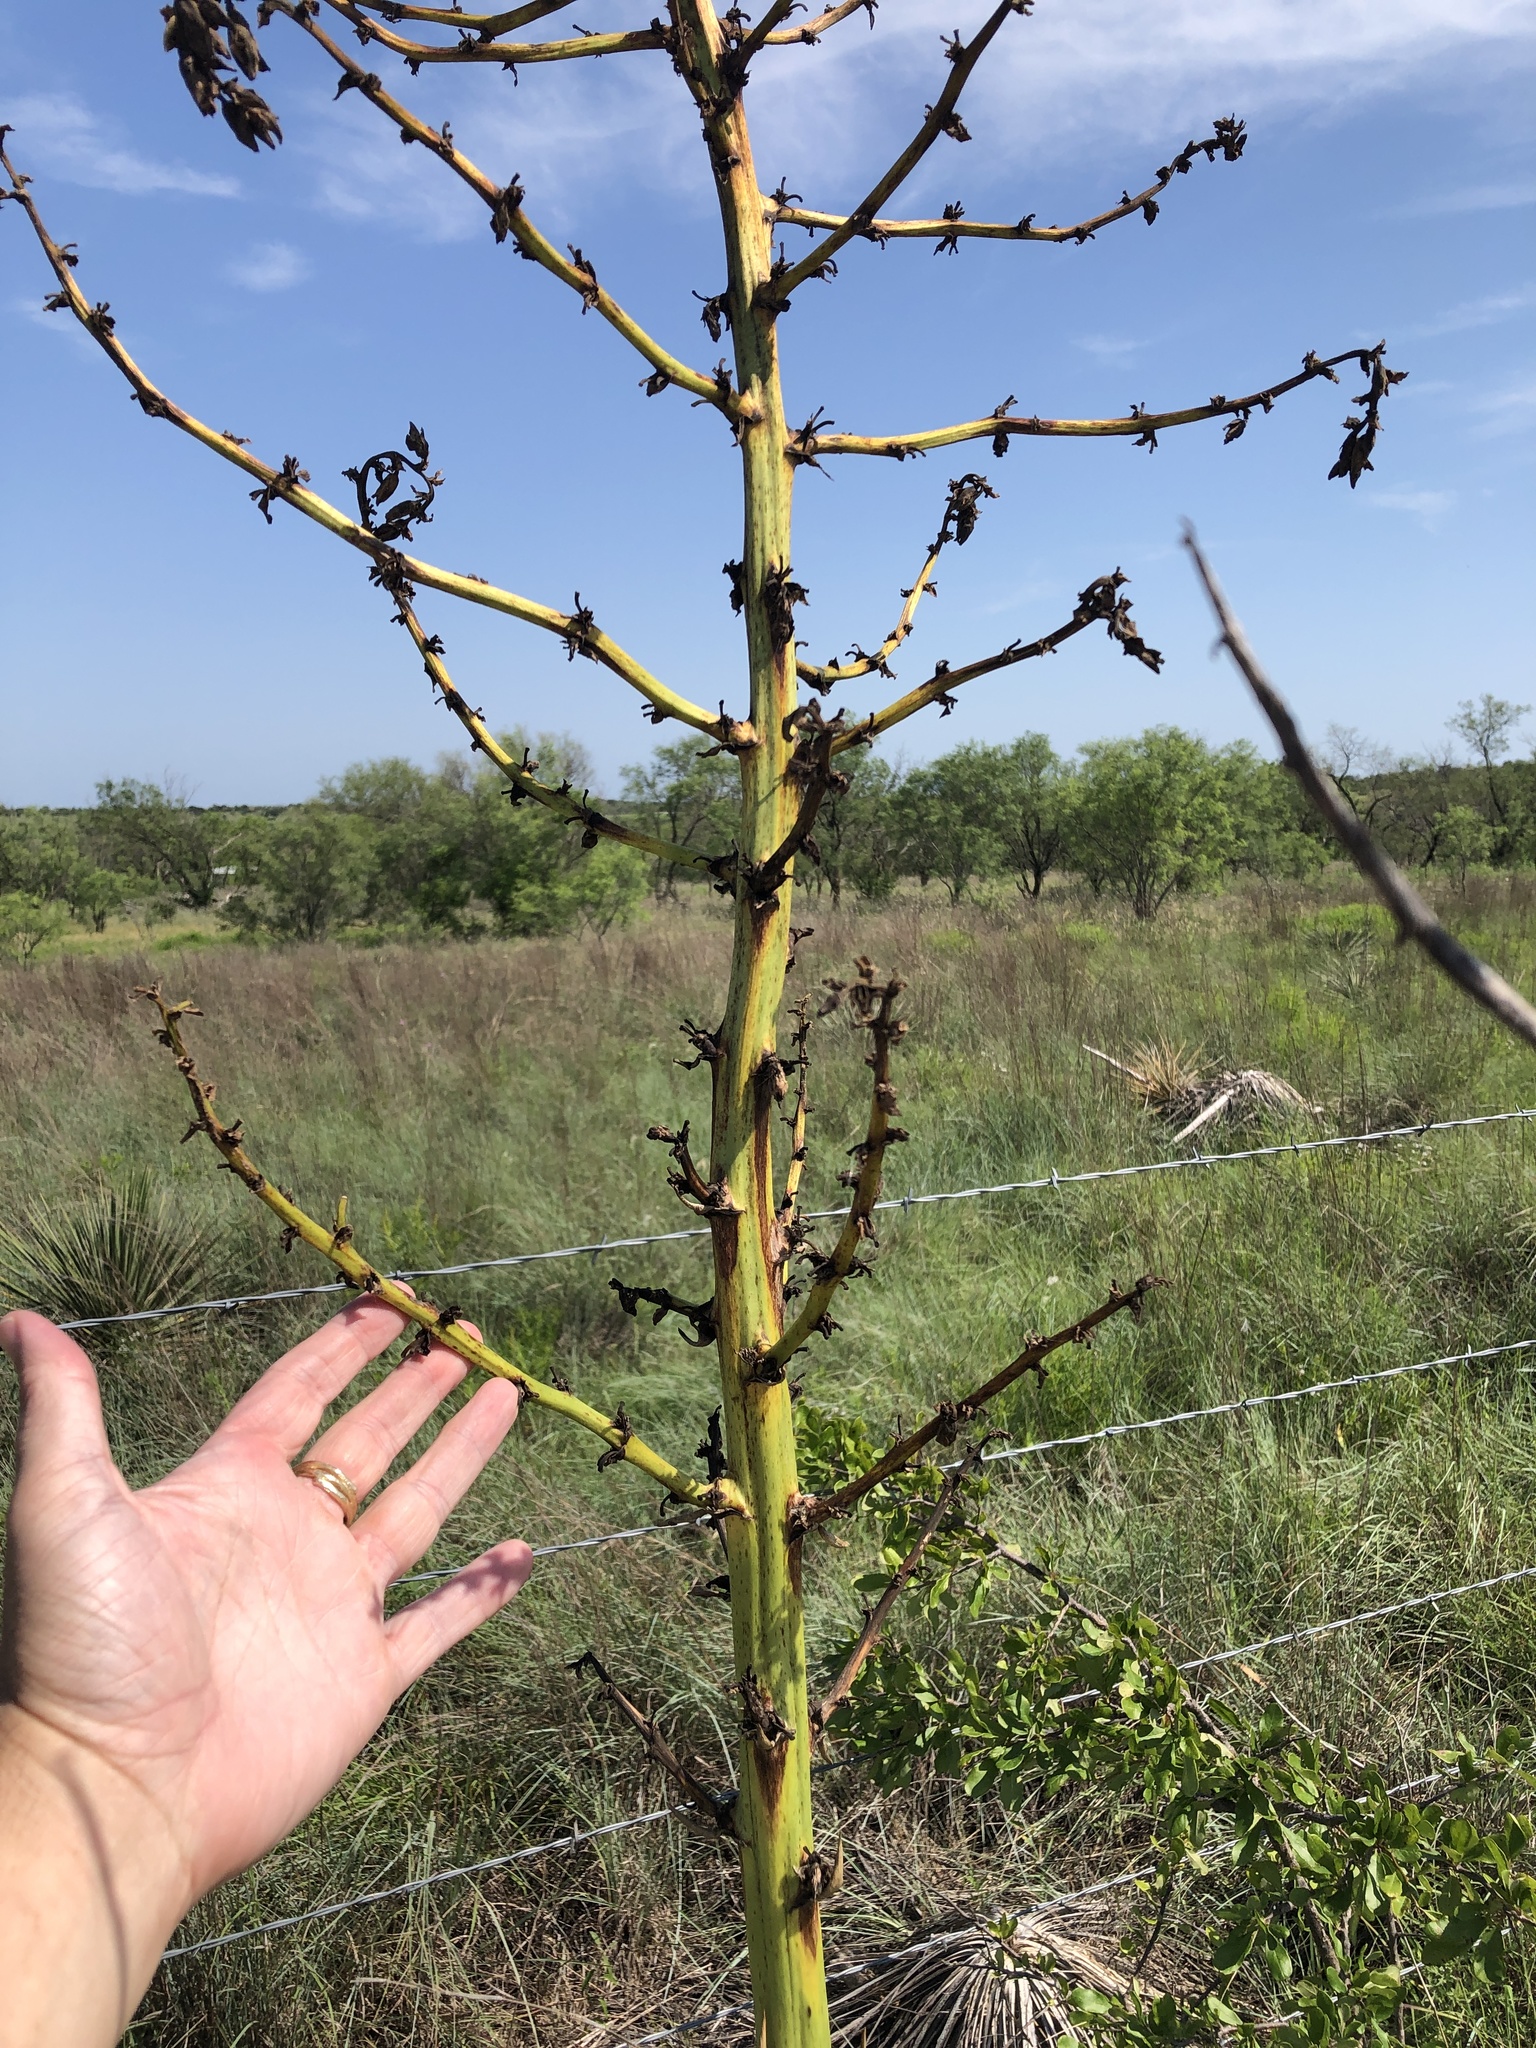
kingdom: Plantae
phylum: Tracheophyta
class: Liliopsida
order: Asparagales
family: Asparagaceae
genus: Yucca
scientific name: Yucca constricta
